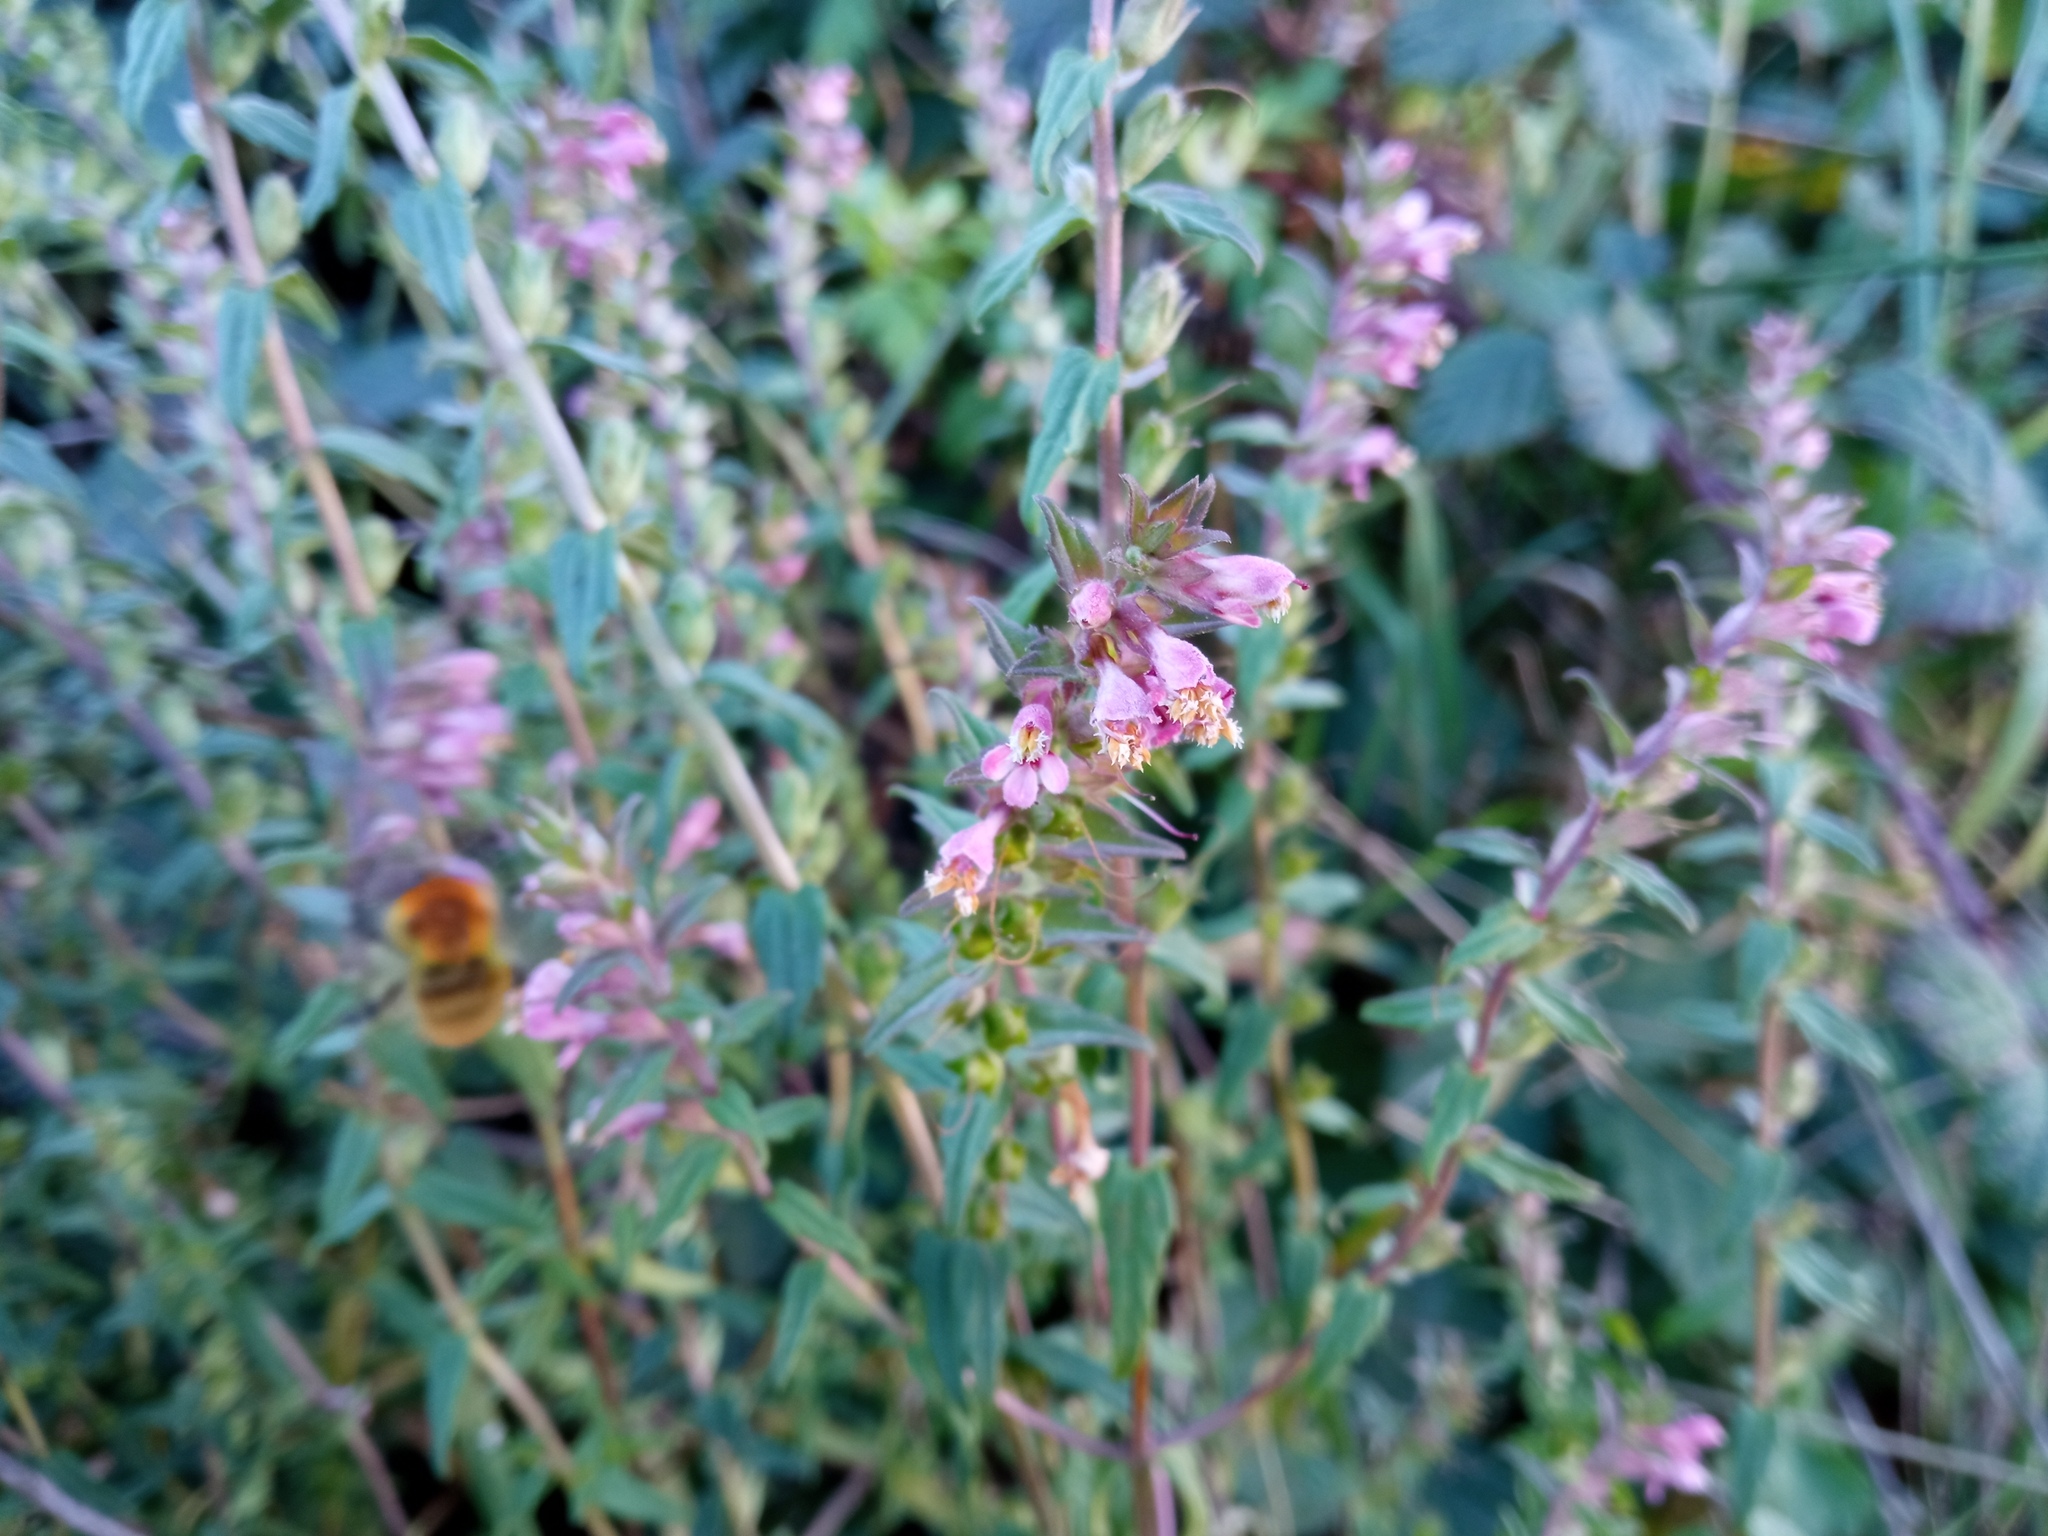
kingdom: Plantae
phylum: Tracheophyta
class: Magnoliopsida
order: Lamiales
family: Orobanchaceae
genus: Odontites
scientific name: Odontites vernus
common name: Red bartsia
